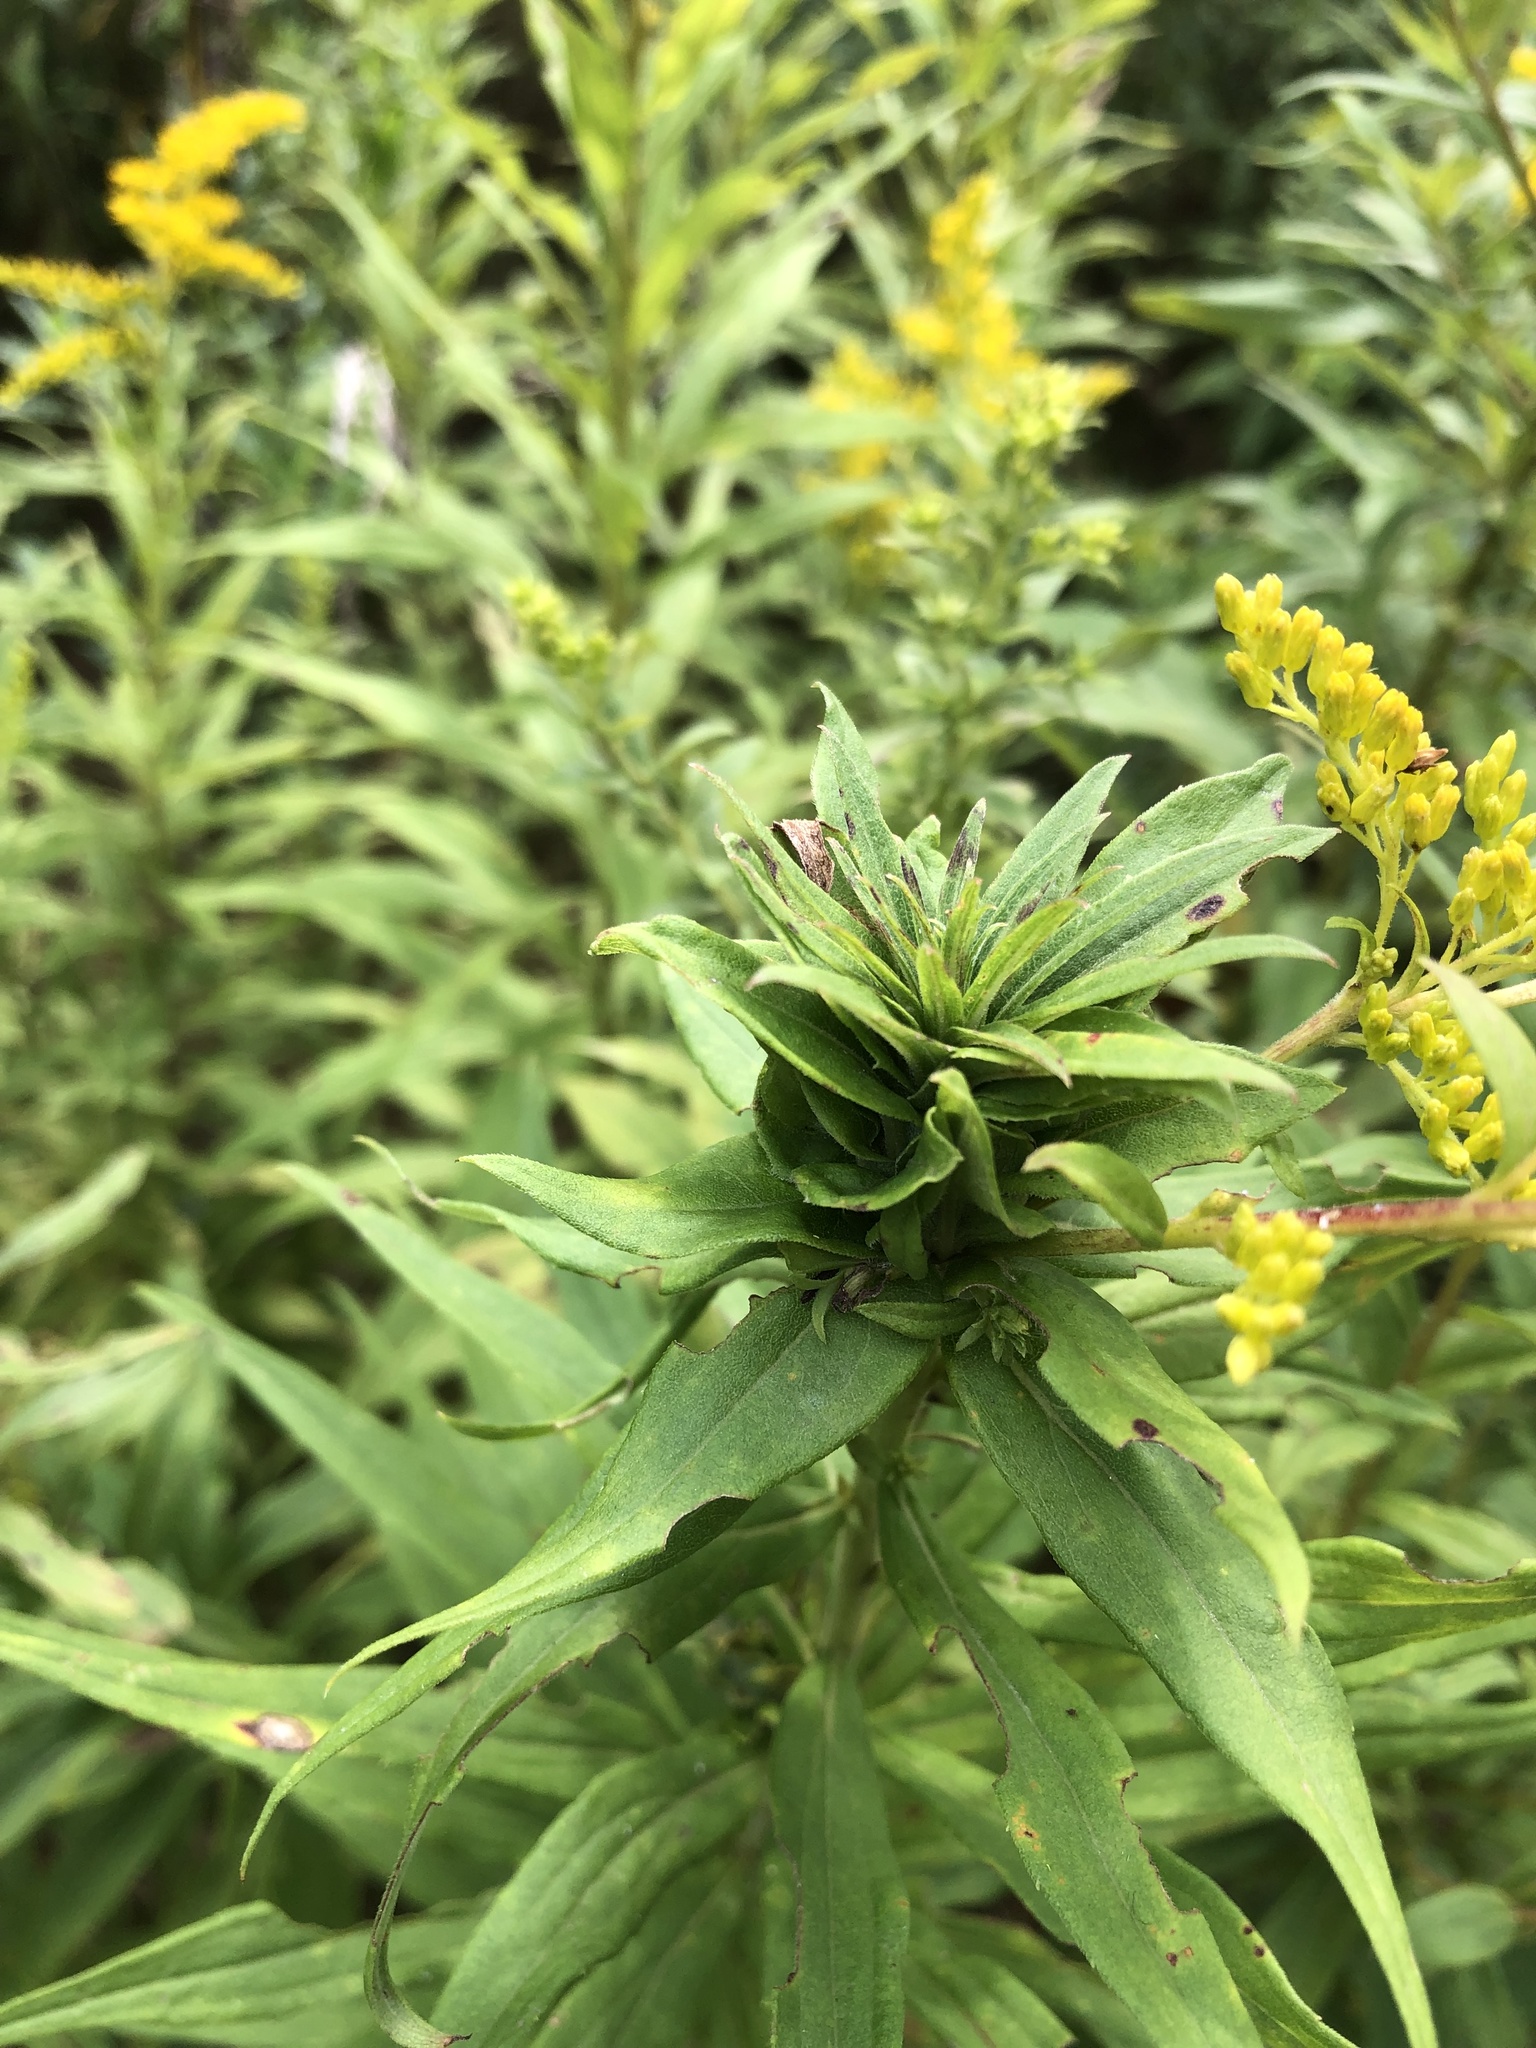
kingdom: Animalia
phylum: Arthropoda
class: Insecta
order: Diptera
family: Cecidomyiidae
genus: Rhopalomyia
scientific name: Rhopalomyia solidaginis
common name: Goldenrod bunch gall midge
